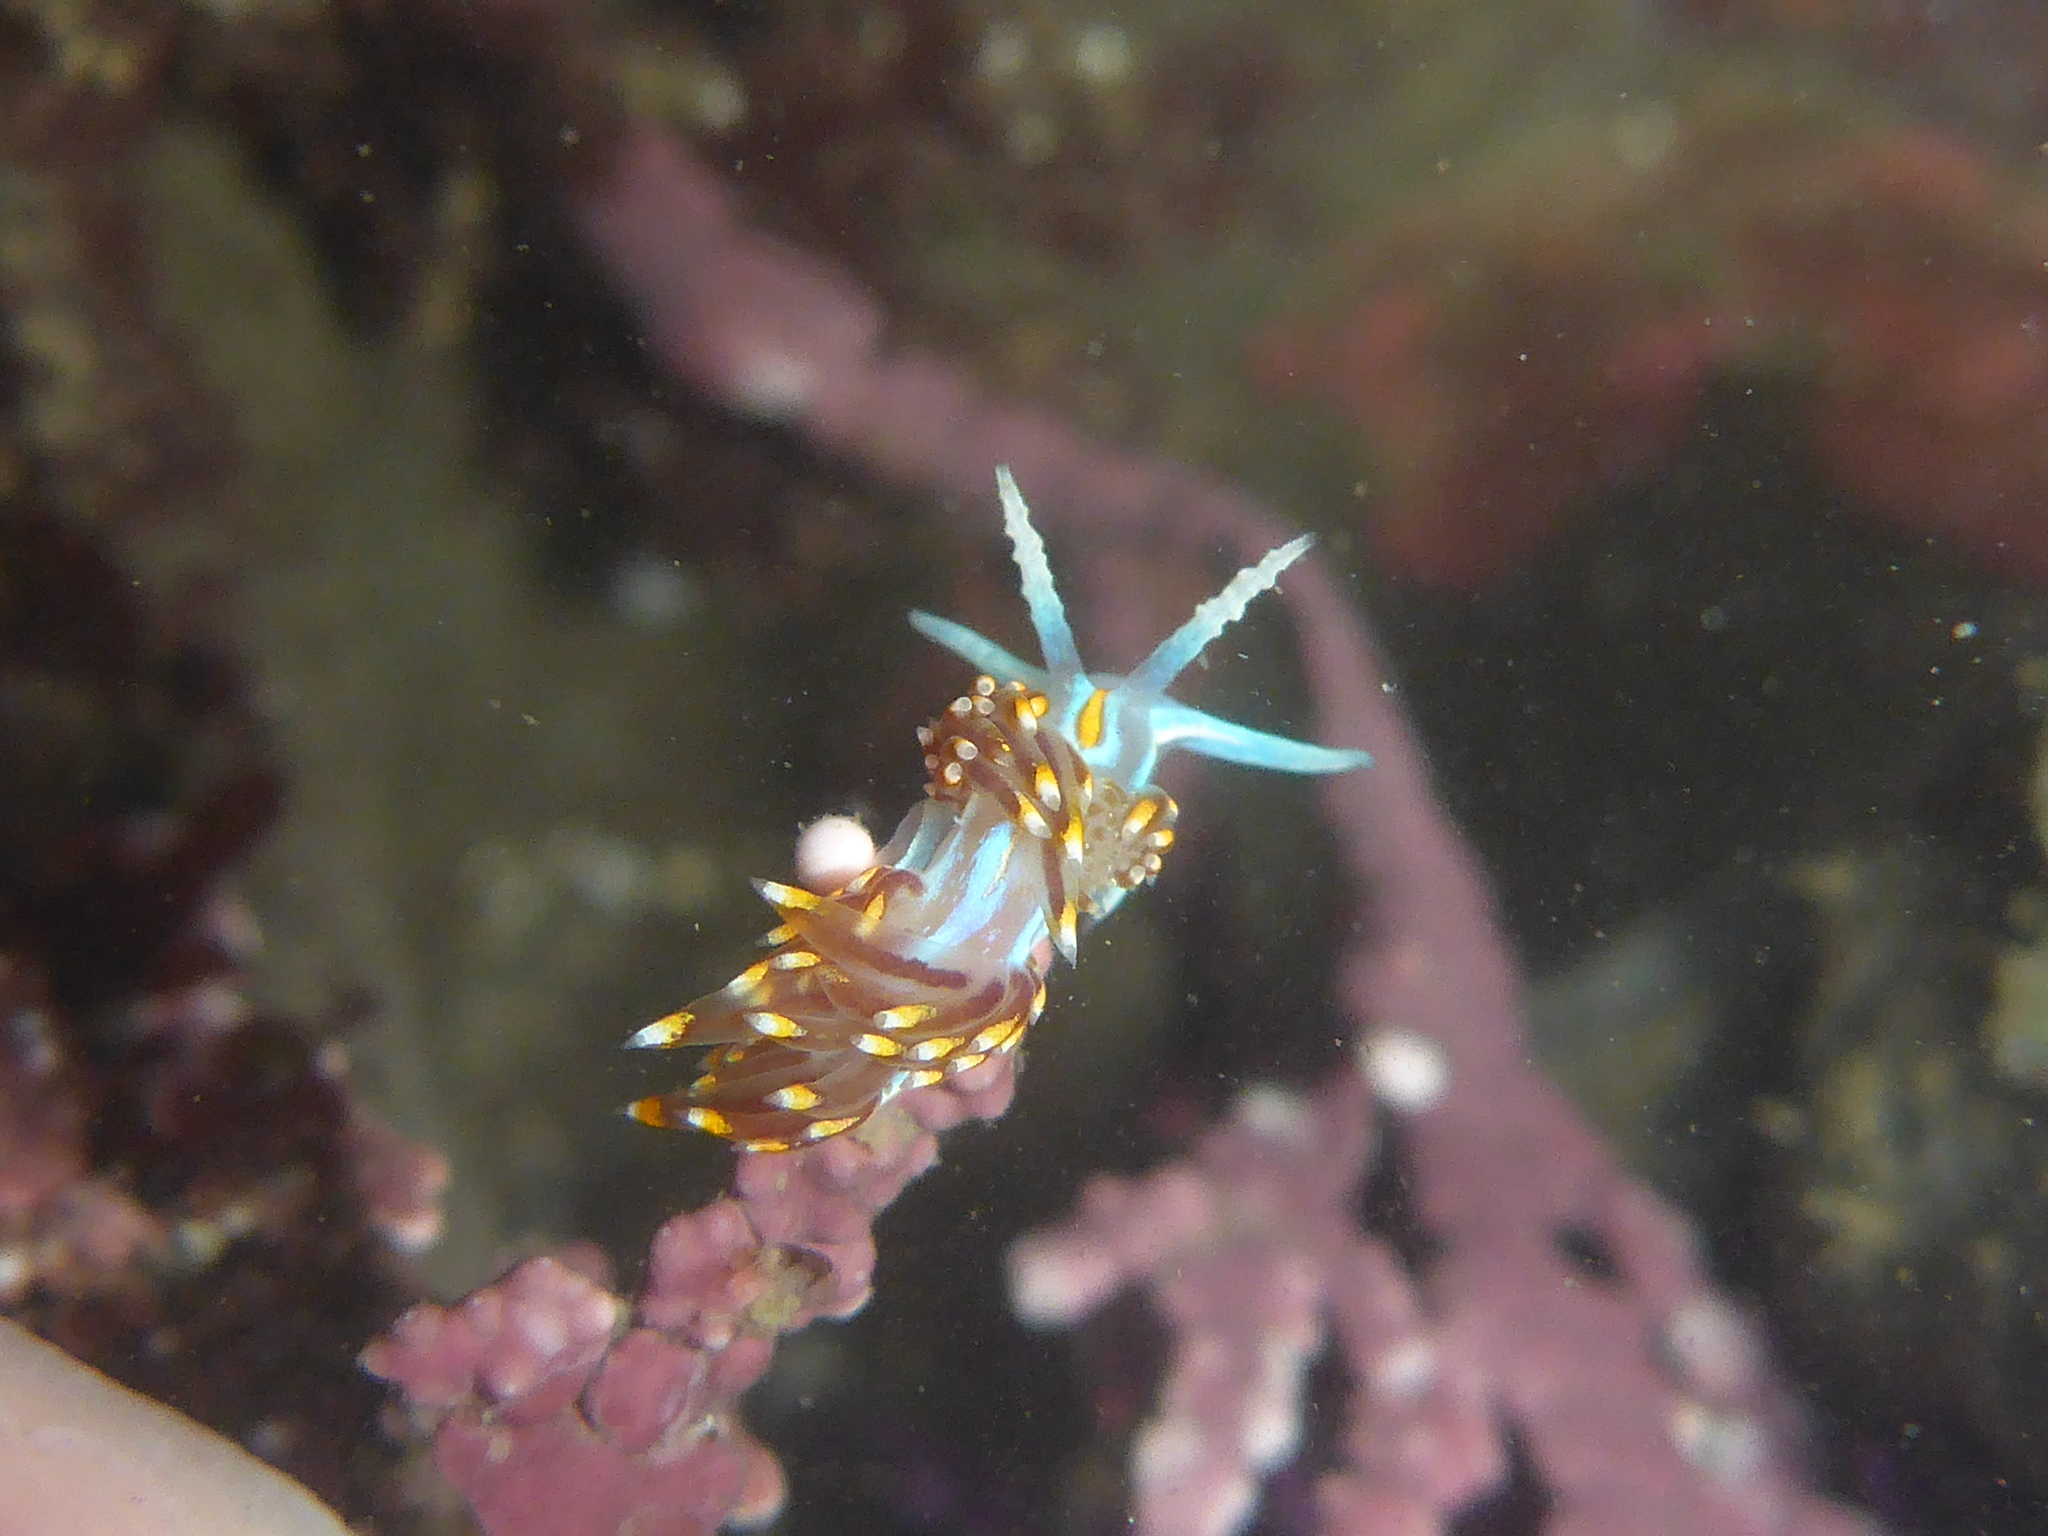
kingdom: Animalia
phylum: Mollusca
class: Gastropoda
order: Nudibranchia
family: Myrrhinidae
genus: Hermissenda
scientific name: Hermissenda opalescens
